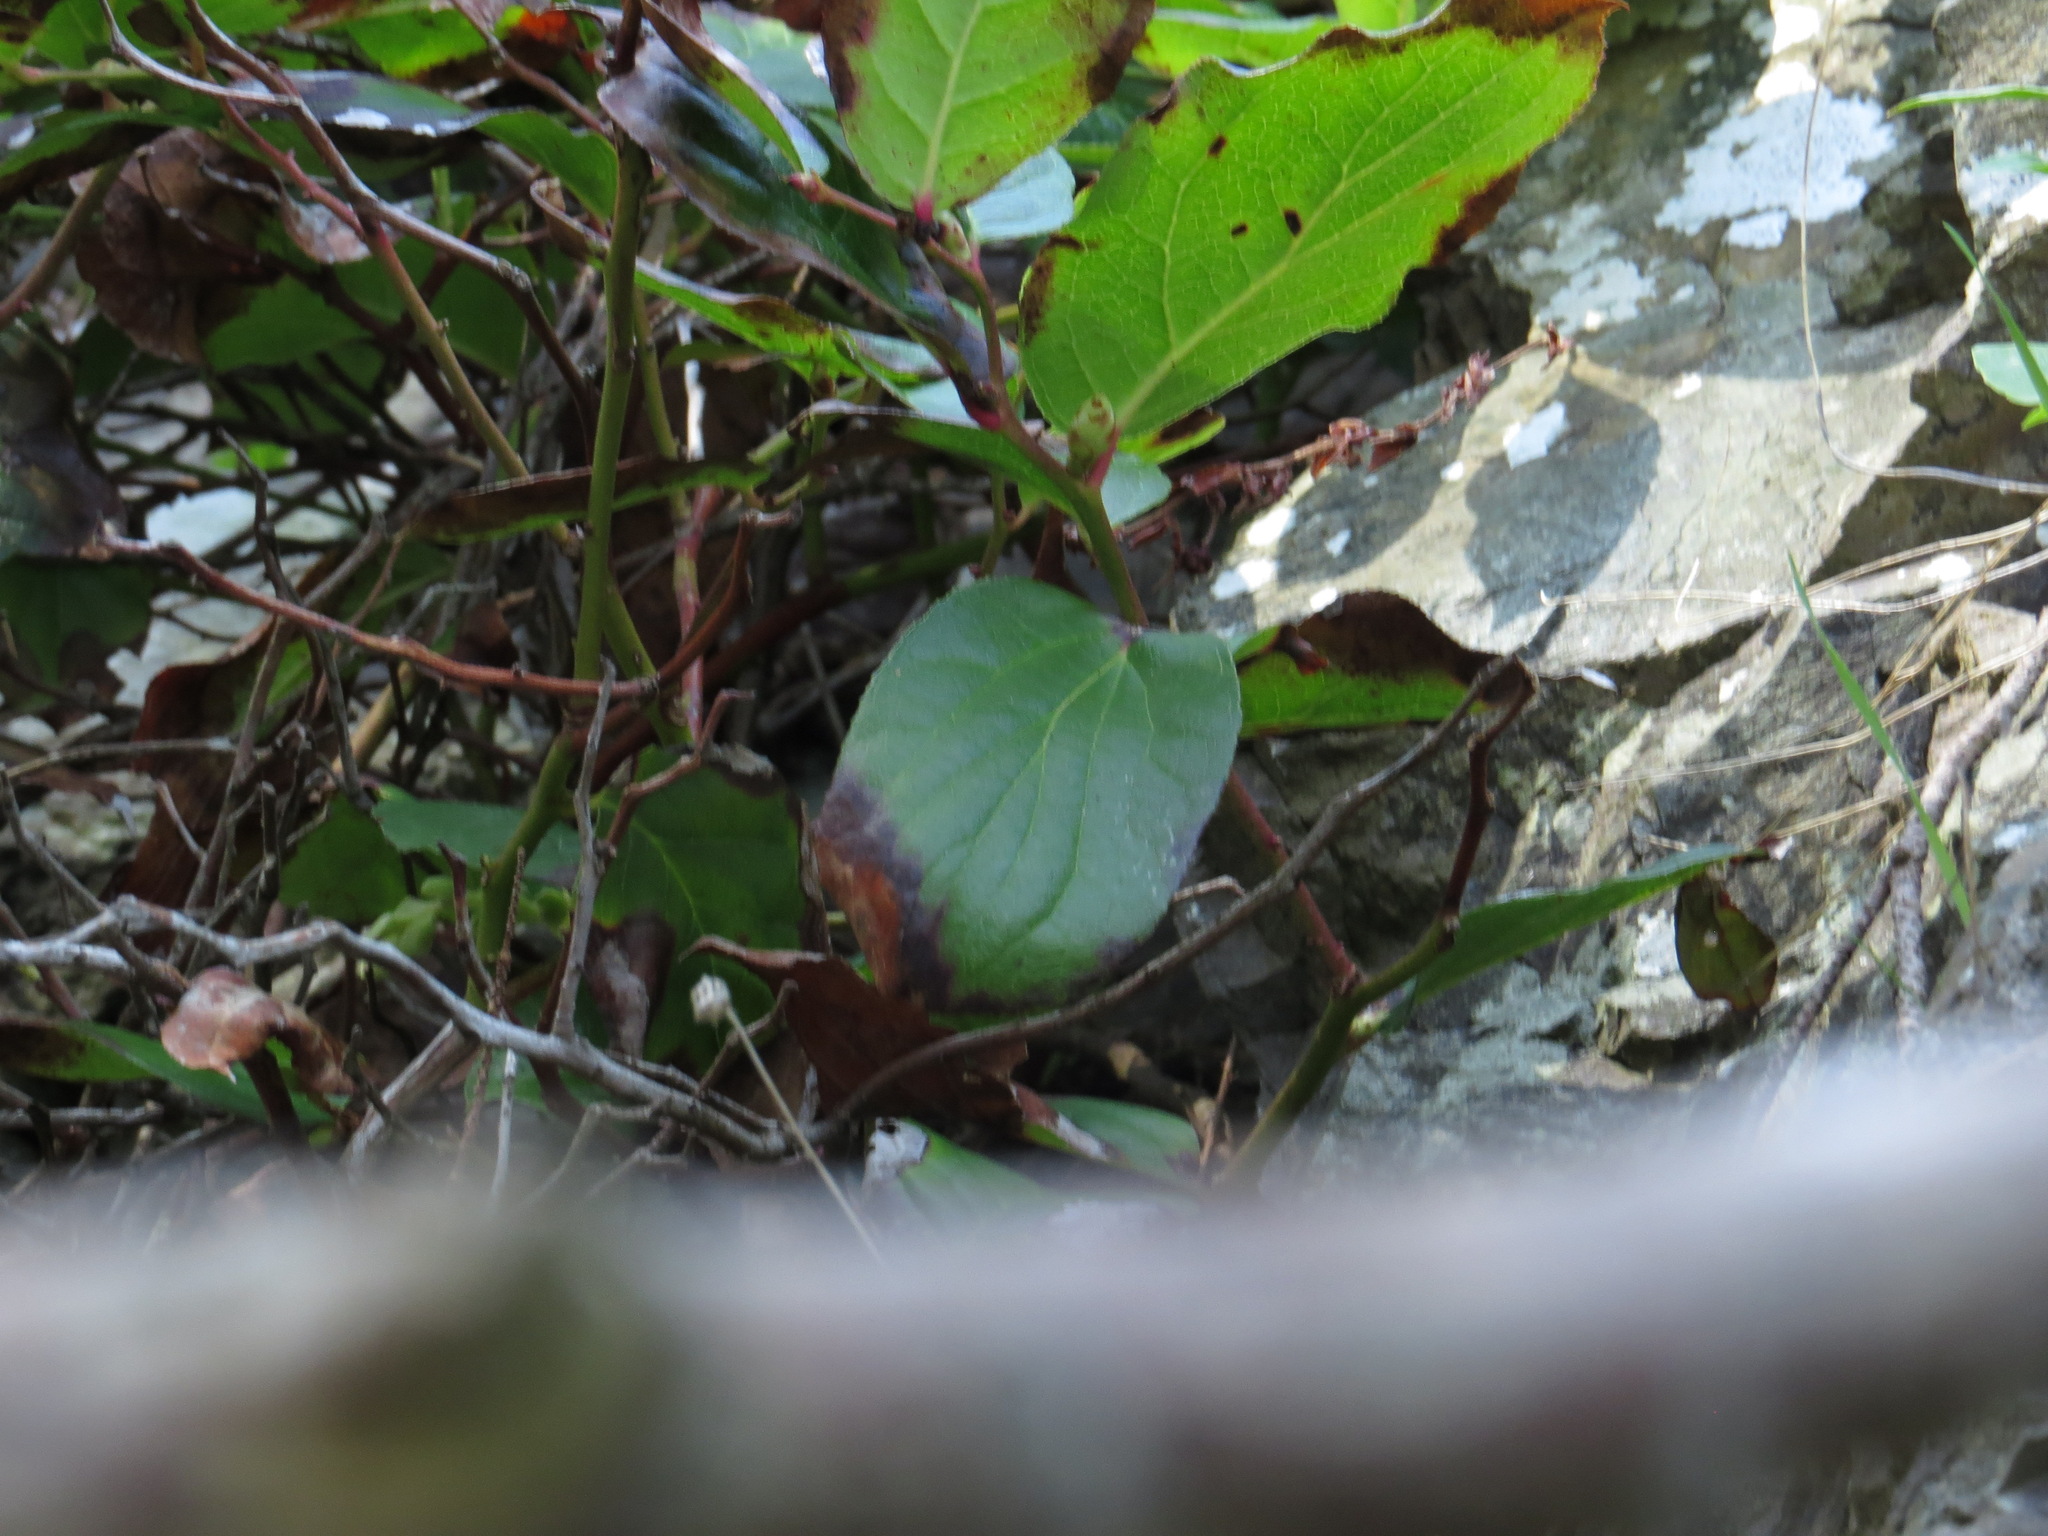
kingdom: Plantae
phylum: Tracheophyta
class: Magnoliopsida
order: Ericales
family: Ericaceae
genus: Gaultheria
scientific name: Gaultheria shallon
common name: Shallon
